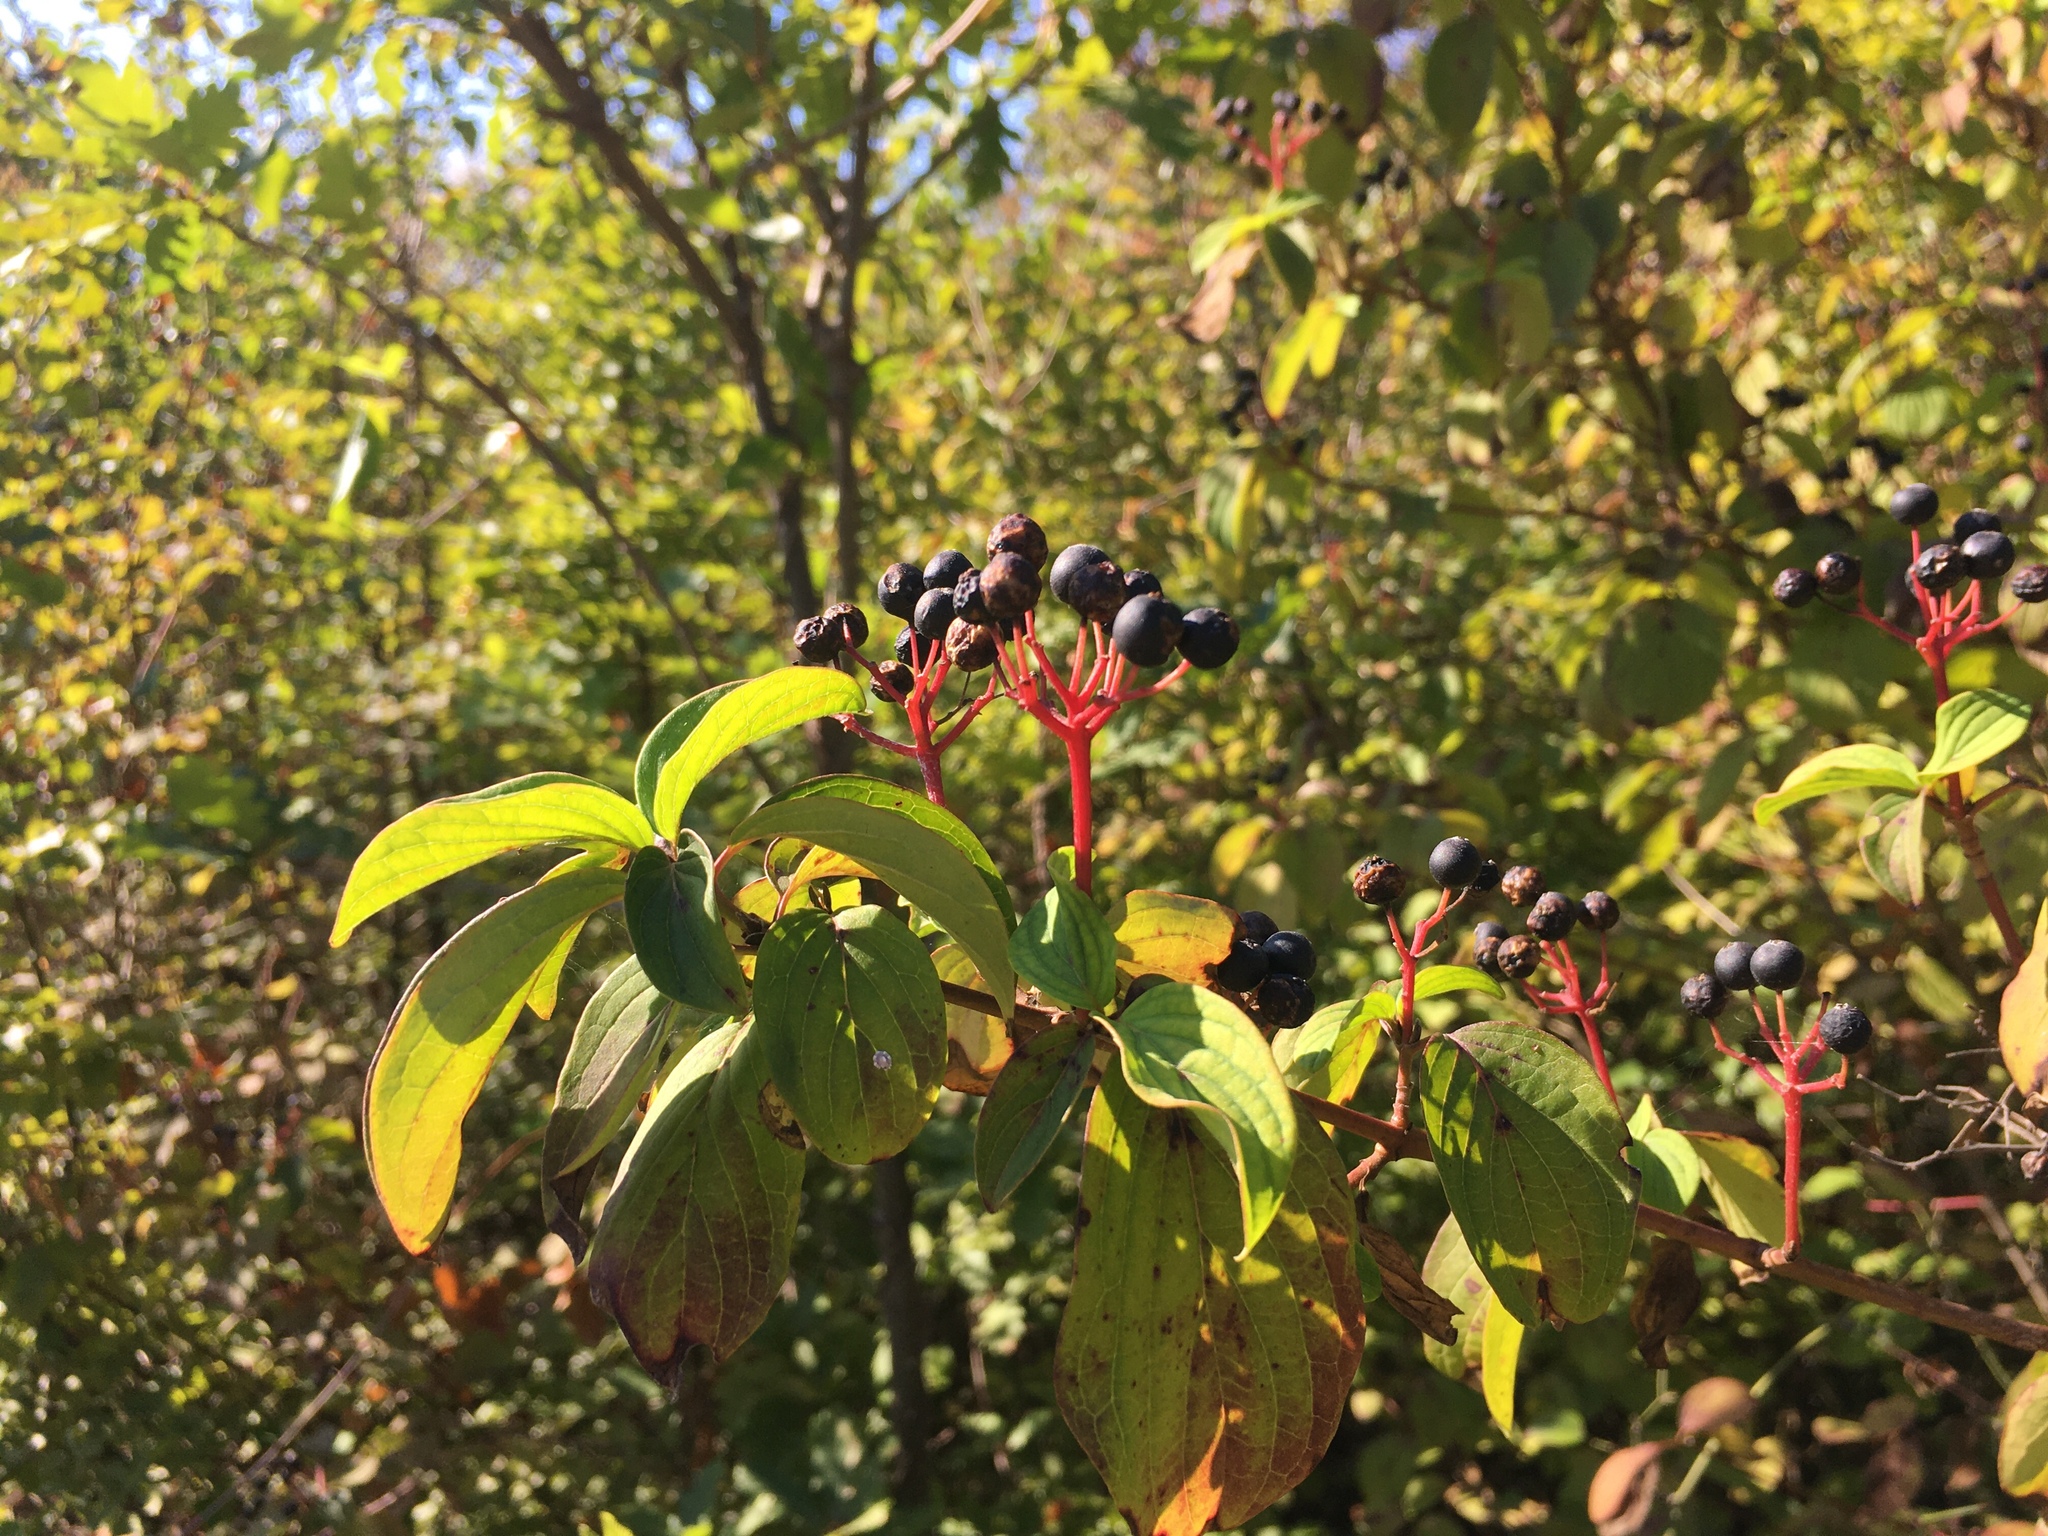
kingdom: Plantae
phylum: Tracheophyta
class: Magnoliopsida
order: Cornales
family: Cornaceae
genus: Cornus
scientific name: Cornus sanguinea
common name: Dogwood
